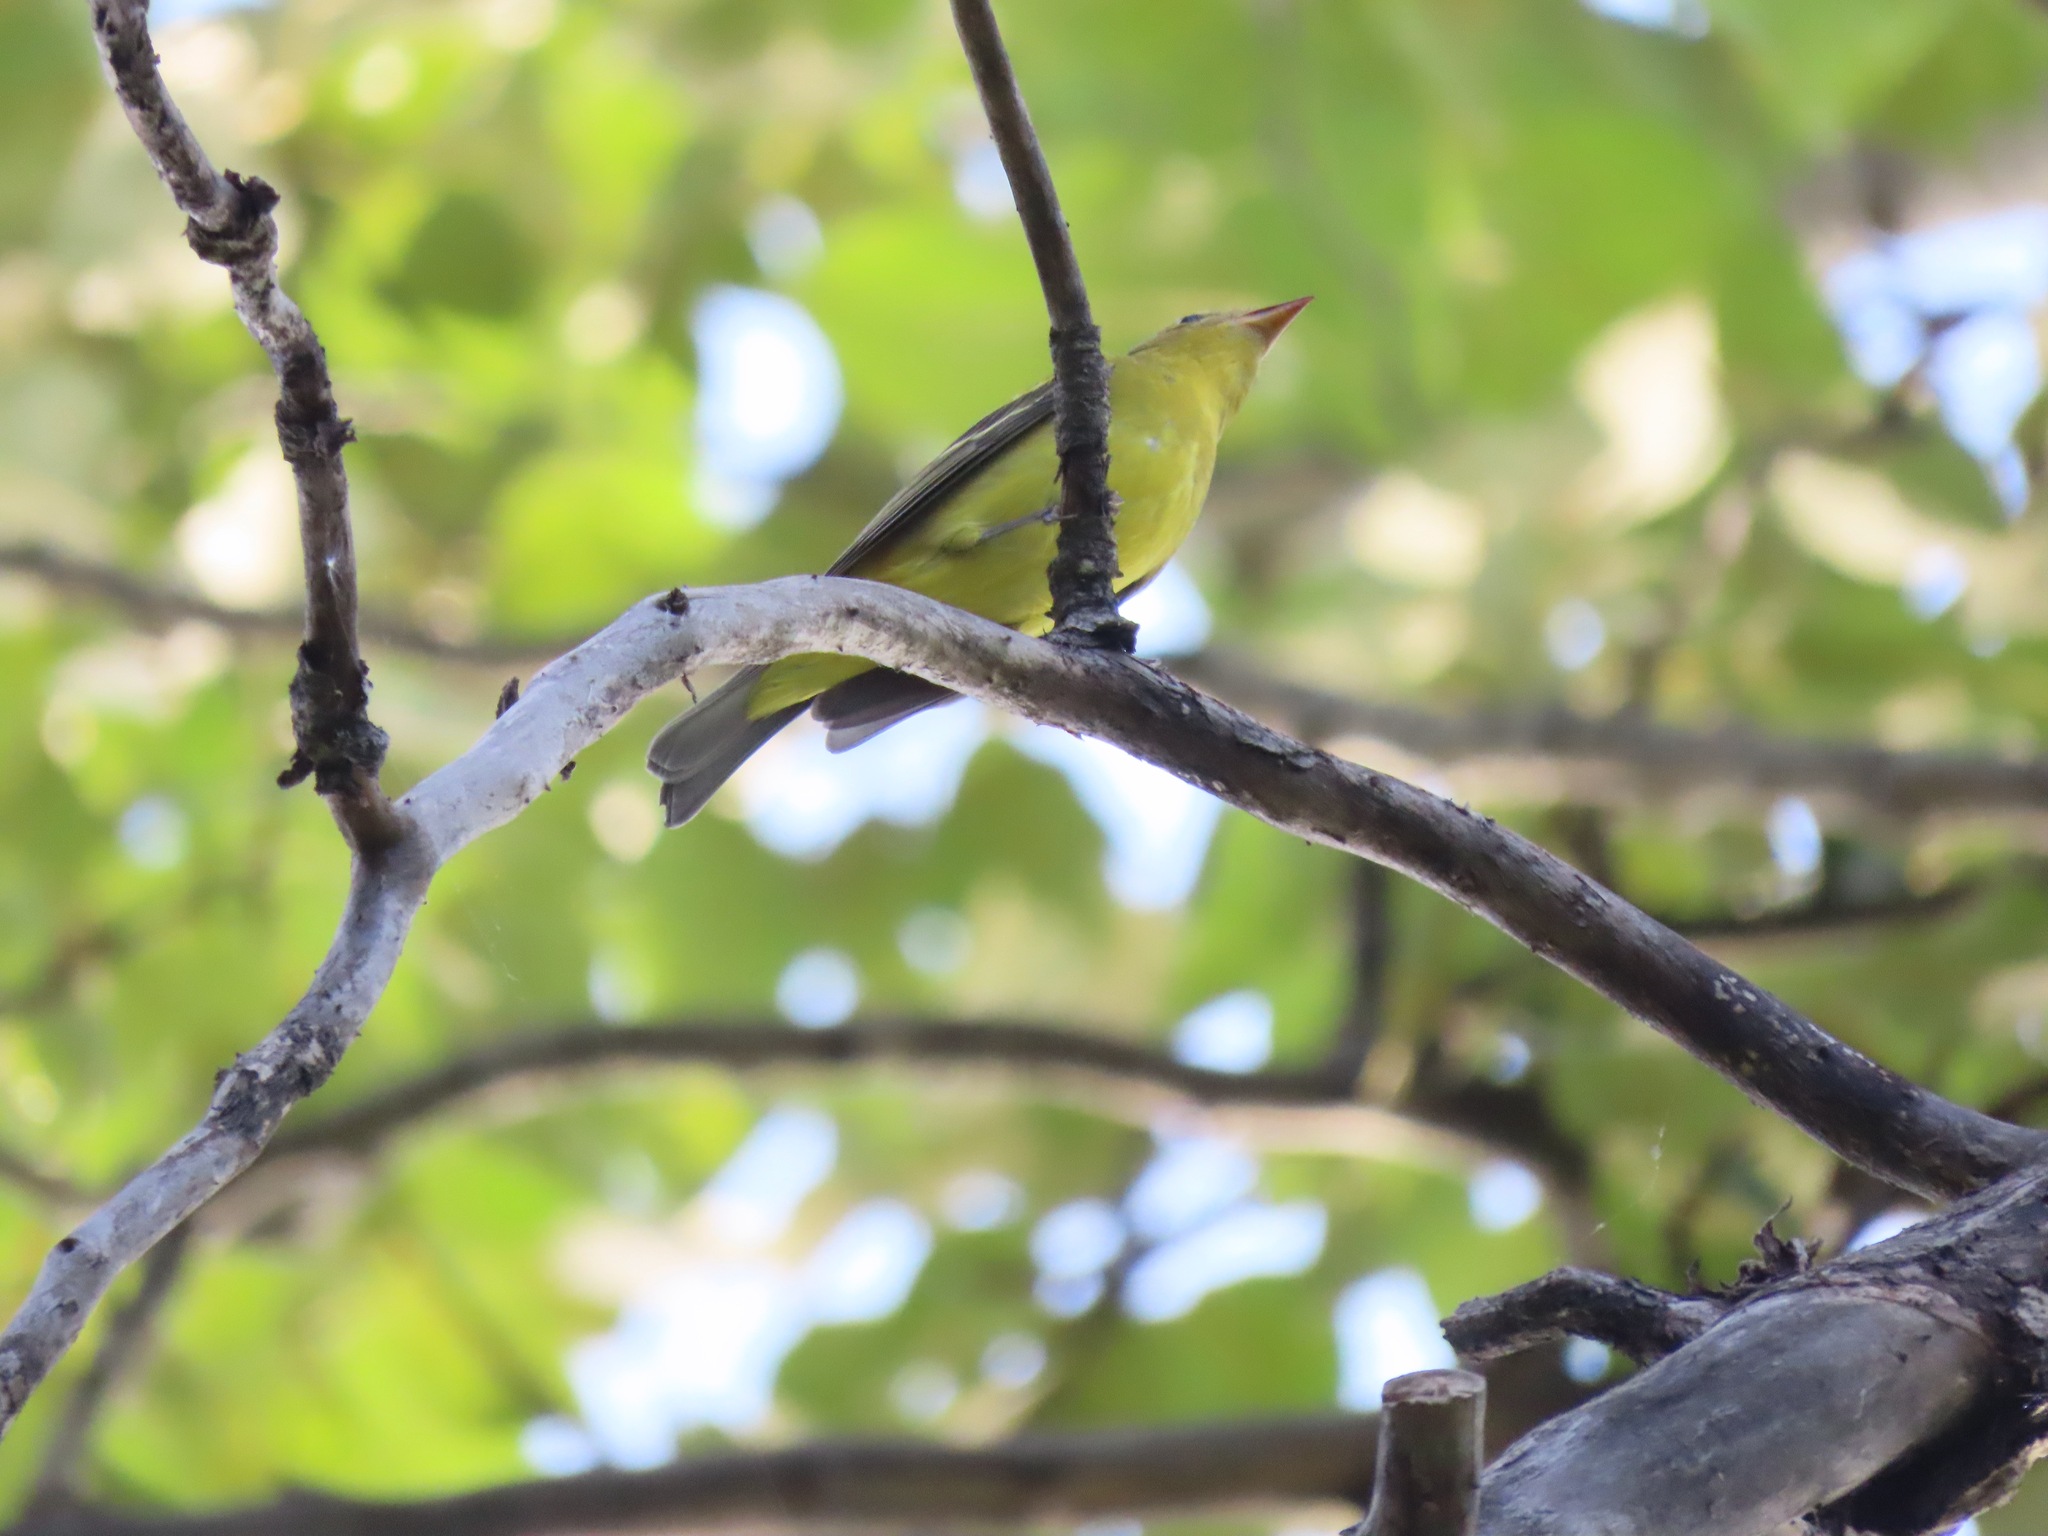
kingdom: Animalia
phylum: Chordata
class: Aves
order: Passeriformes
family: Cardinalidae
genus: Piranga
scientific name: Piranga ludoviciana
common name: Western tanager
